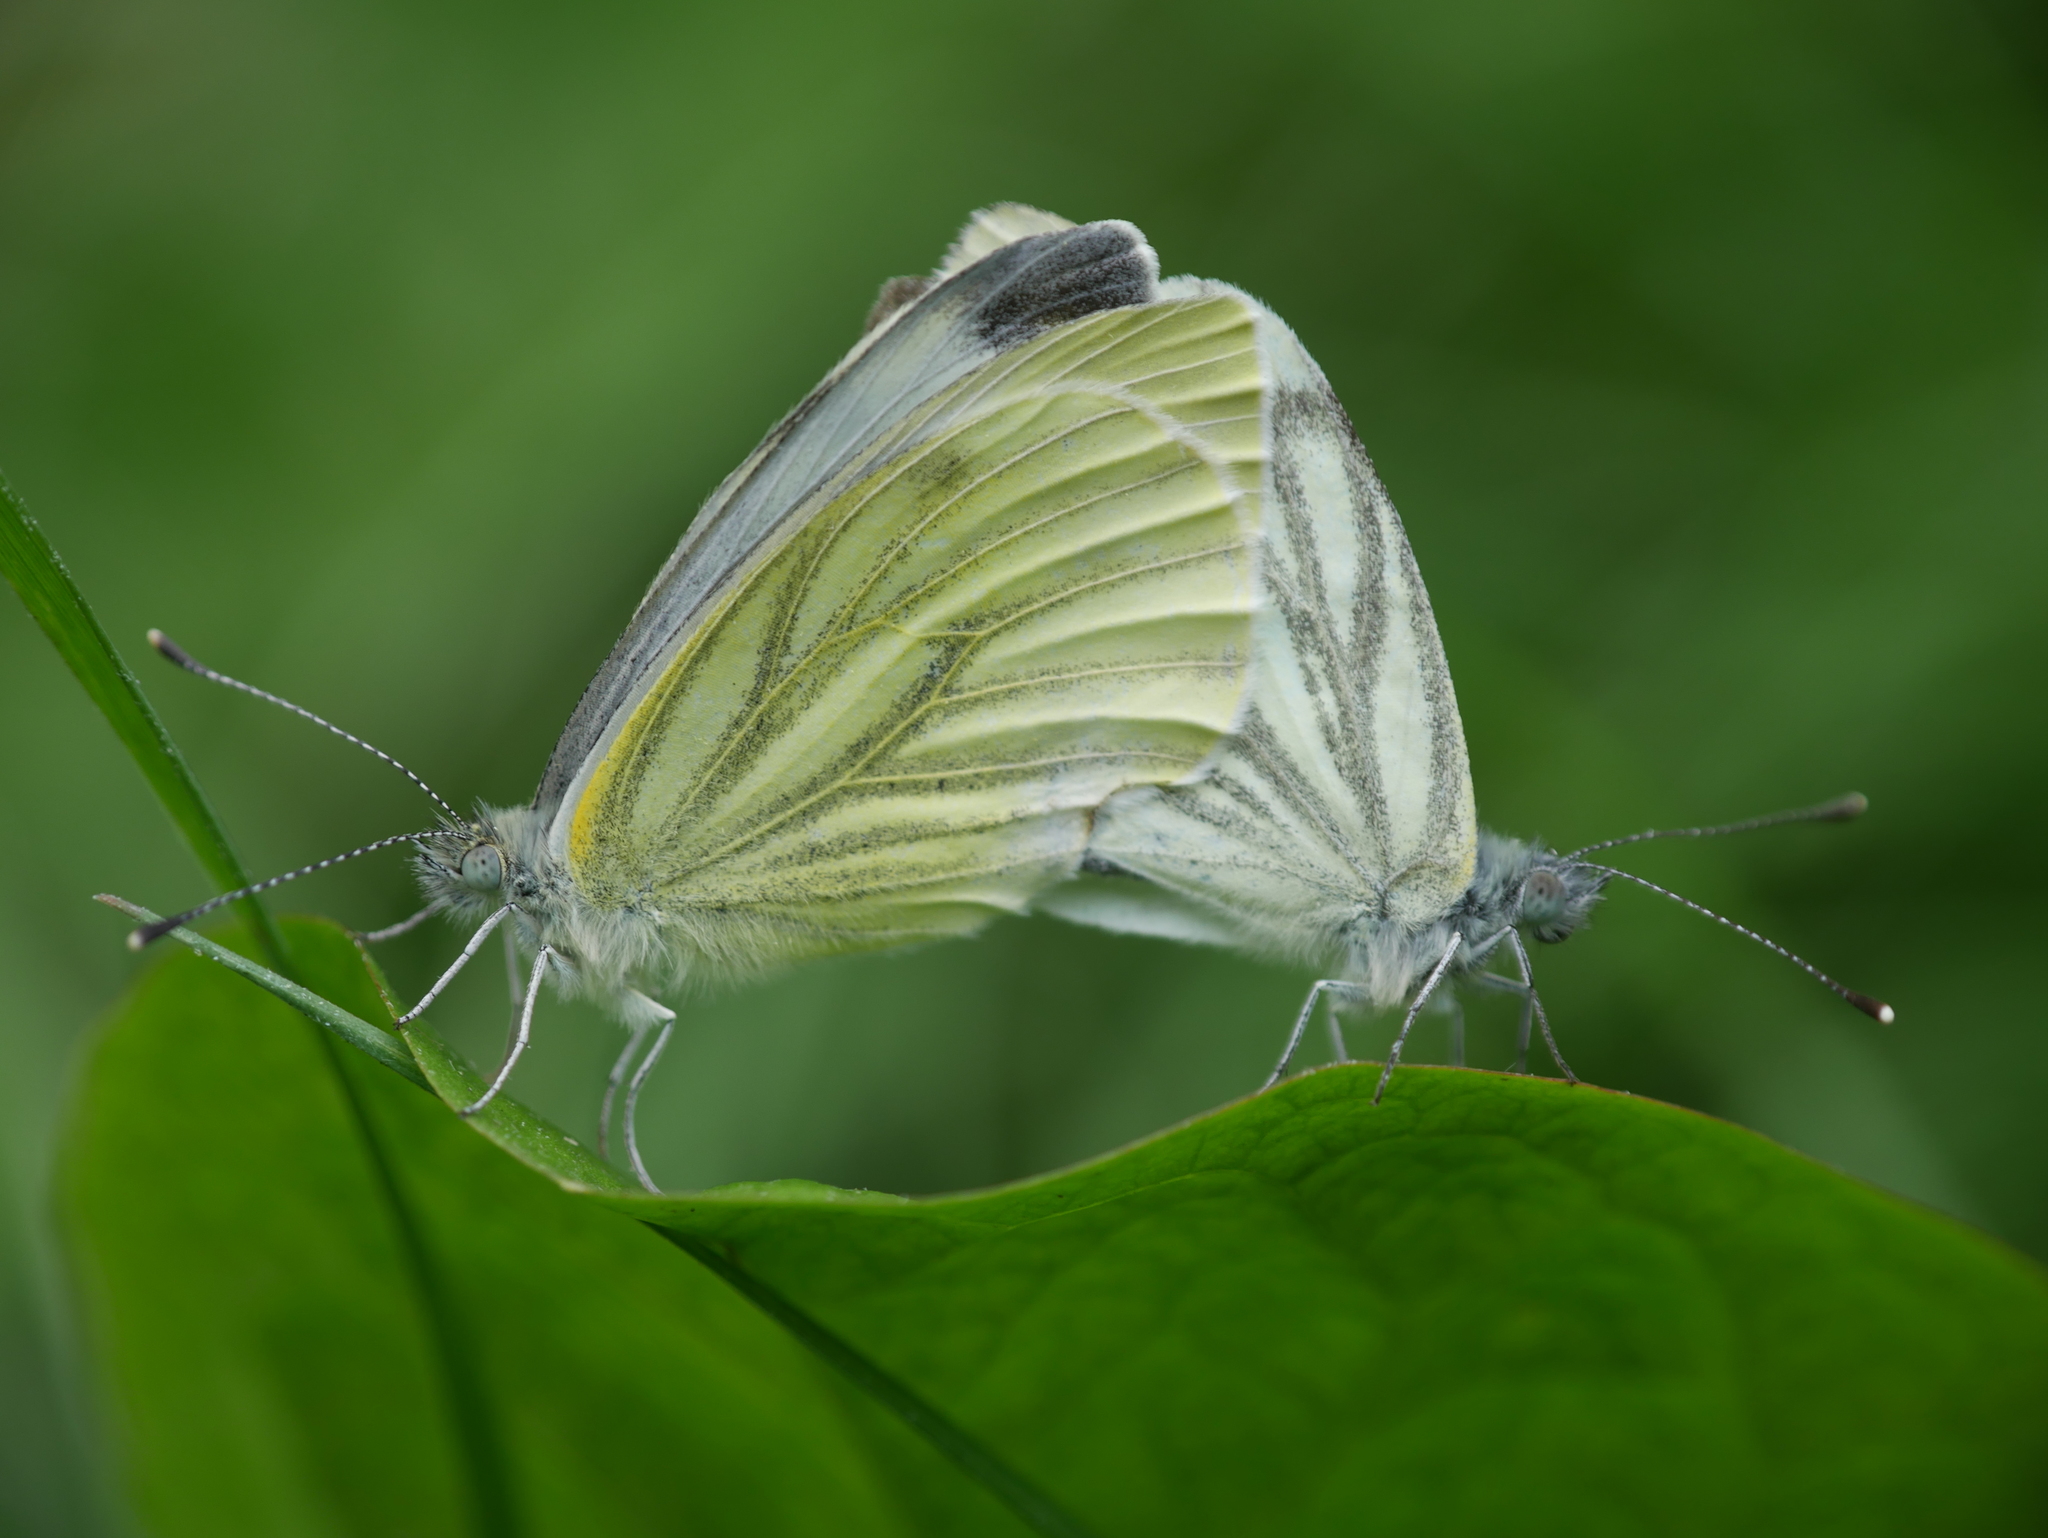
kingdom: Animalia
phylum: Arthropoda
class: Insecta
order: Lepidoptera
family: Pieridae
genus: Pieris
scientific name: Pieris napi
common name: Green-veined white
